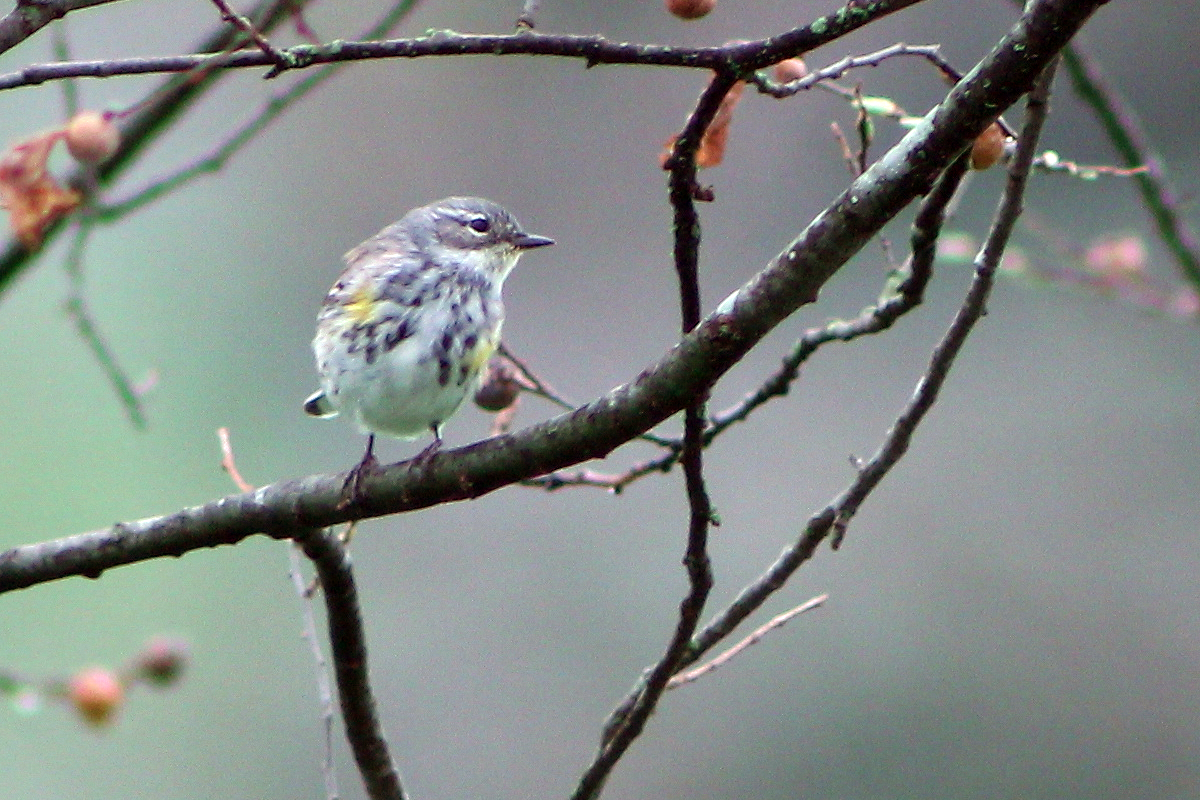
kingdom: Animalia
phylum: Chordata
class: Aves
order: Passeriformes
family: Parulidae
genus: Setophaga
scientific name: Setophaga coronata
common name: Myrtle warbler
